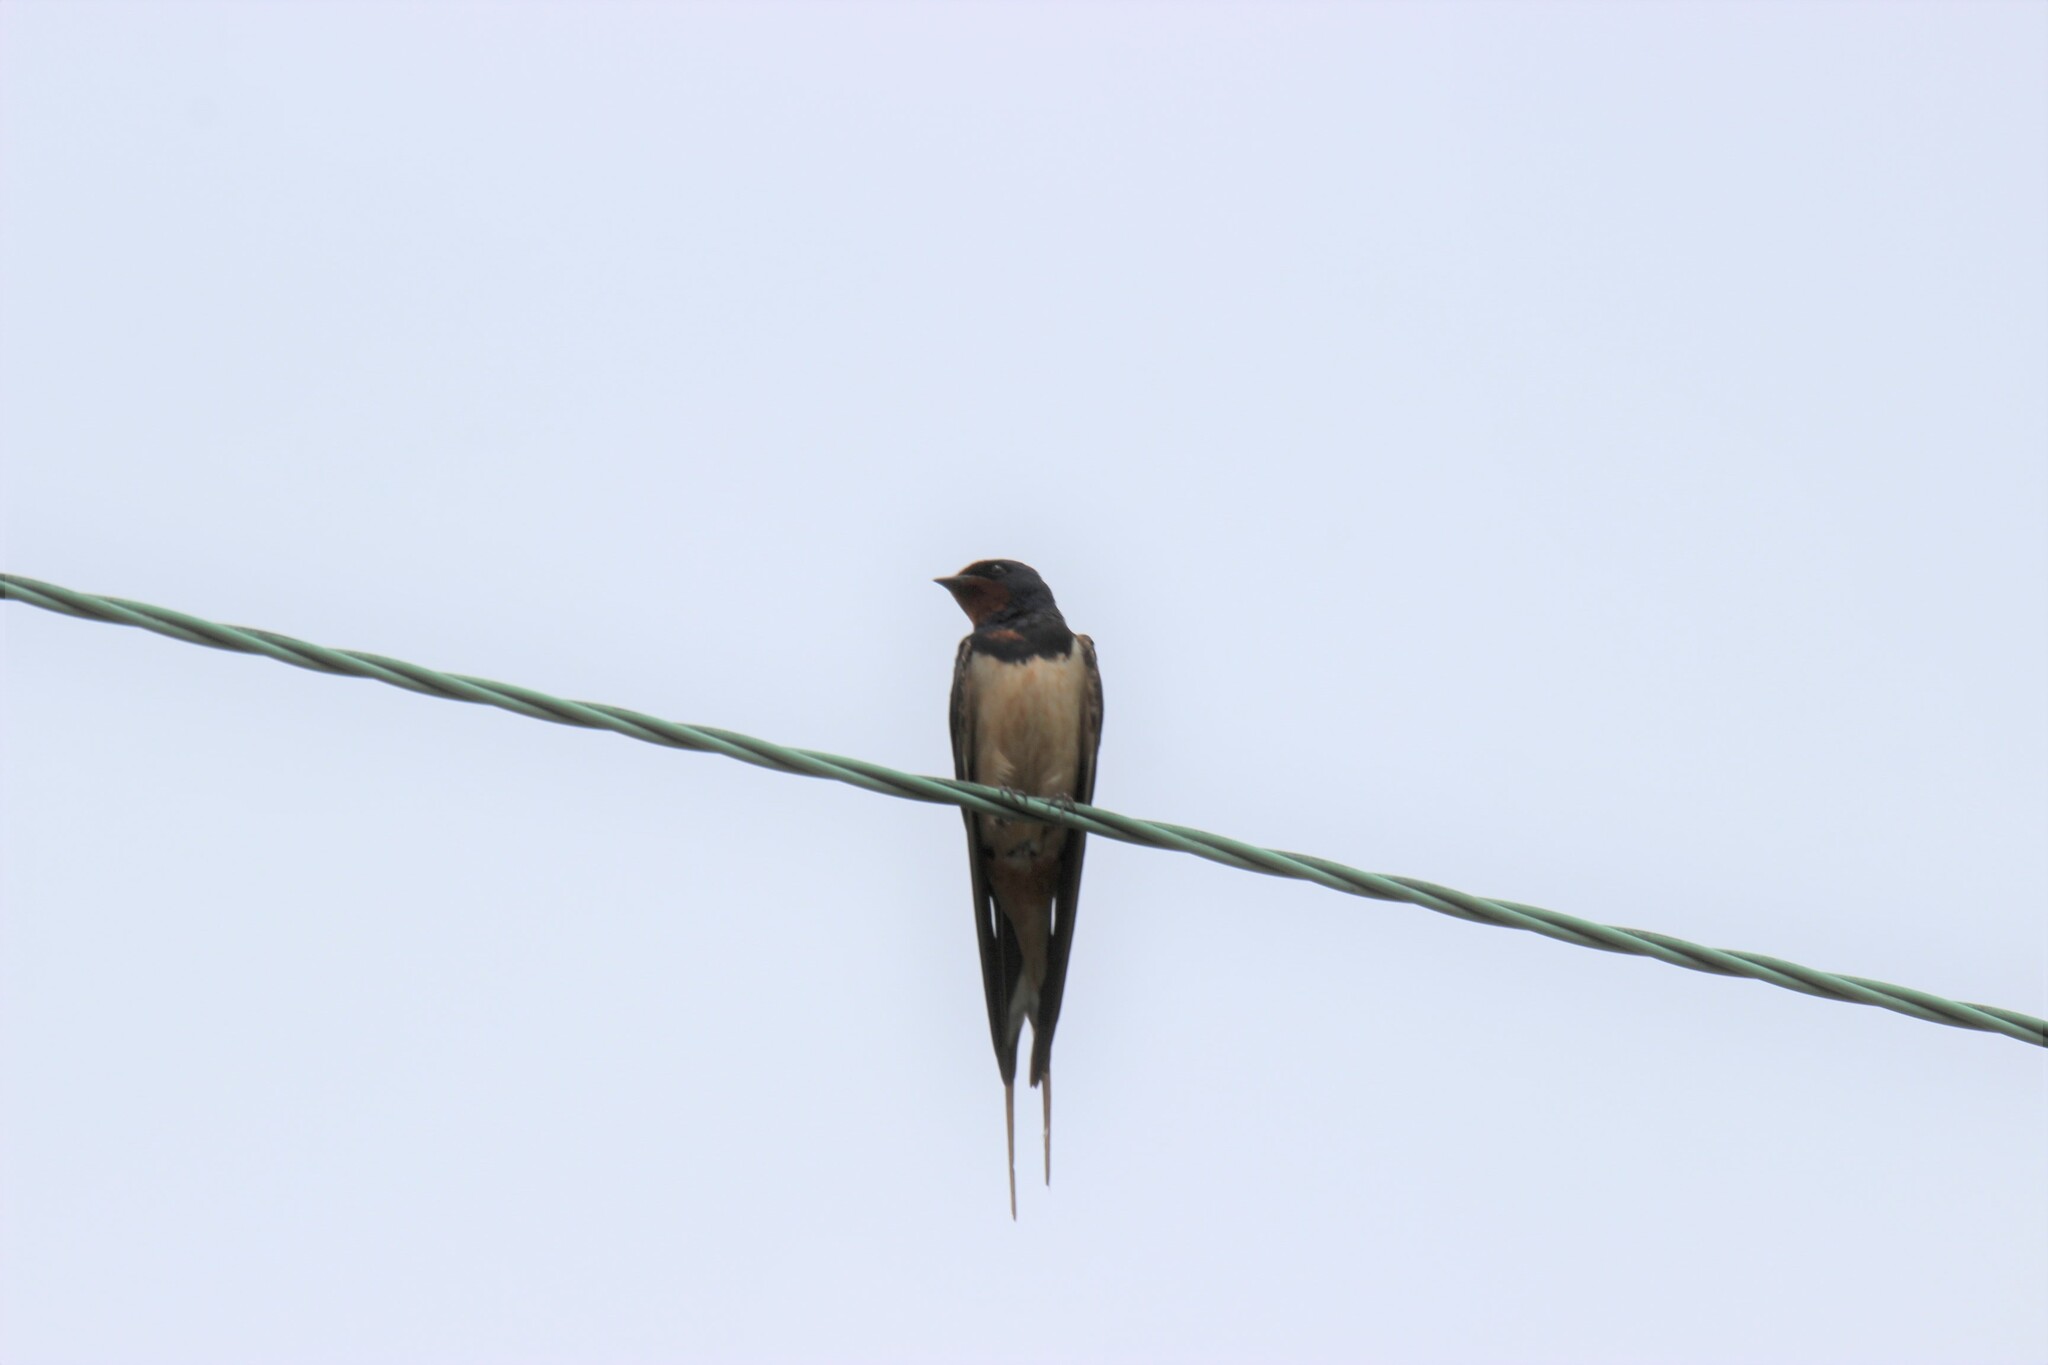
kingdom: Animalia
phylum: Chordata
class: Aves
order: Passeriformes
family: Hirundinidae
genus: Hirundo
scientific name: Hirundo rustica
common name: Barn swallow
